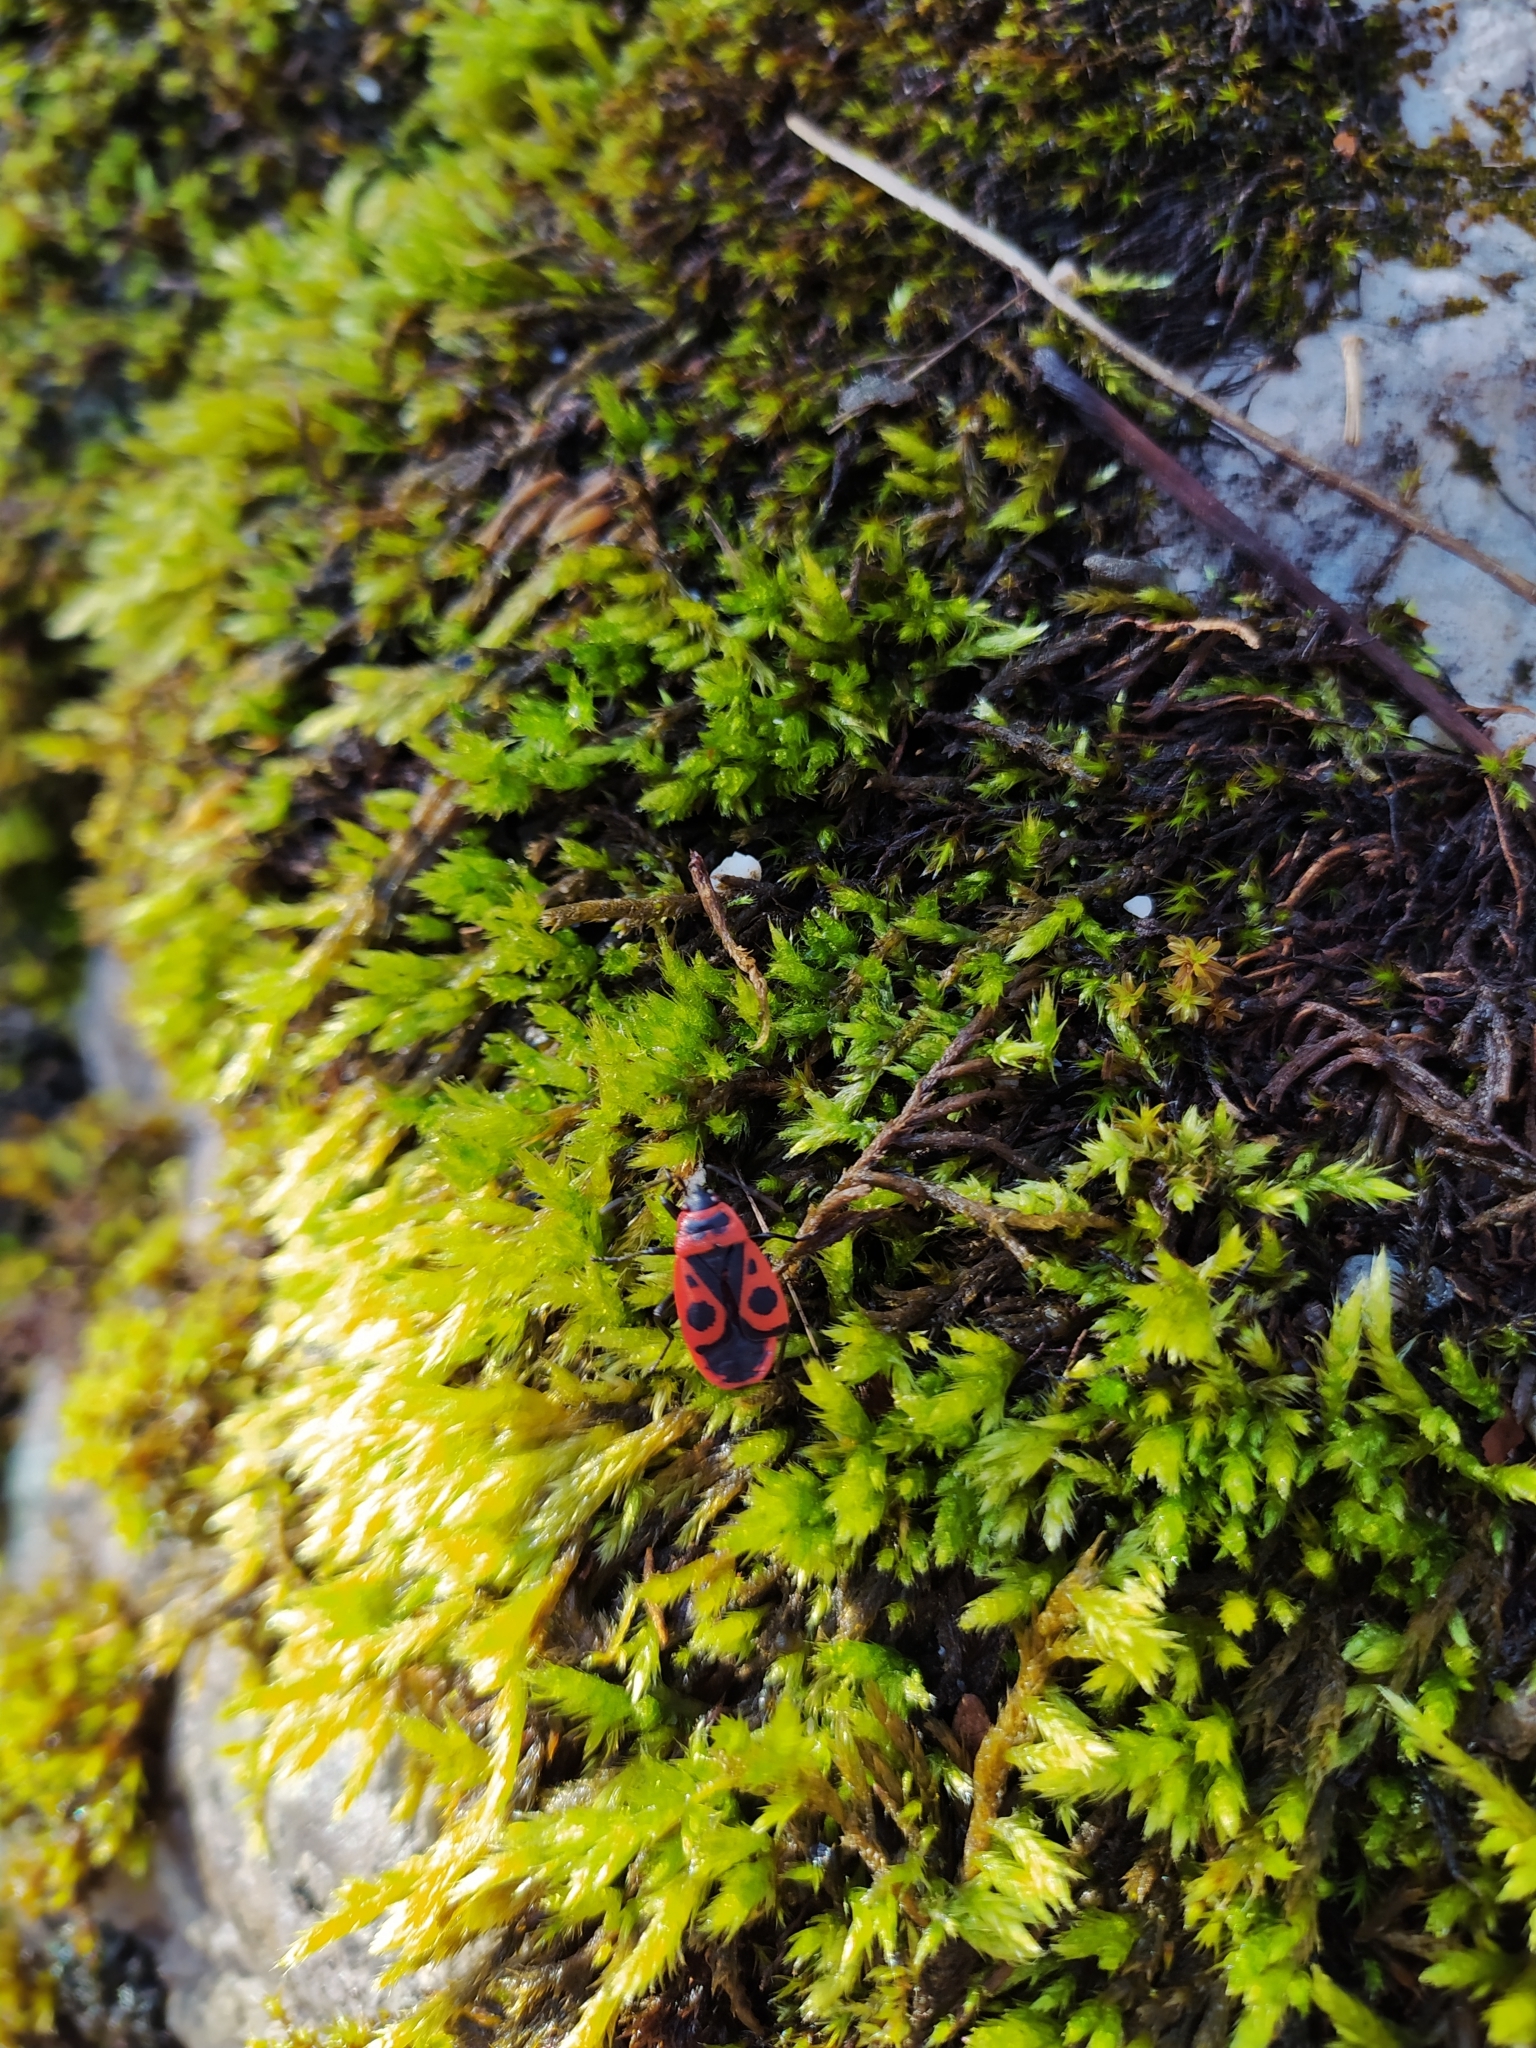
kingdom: Animalia
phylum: Arthropoda
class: Insecta
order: Hemiptera
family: Pyrrhocoridae
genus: Pyrrhocoris
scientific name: Pyrrhocoris apterus
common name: Firebug
